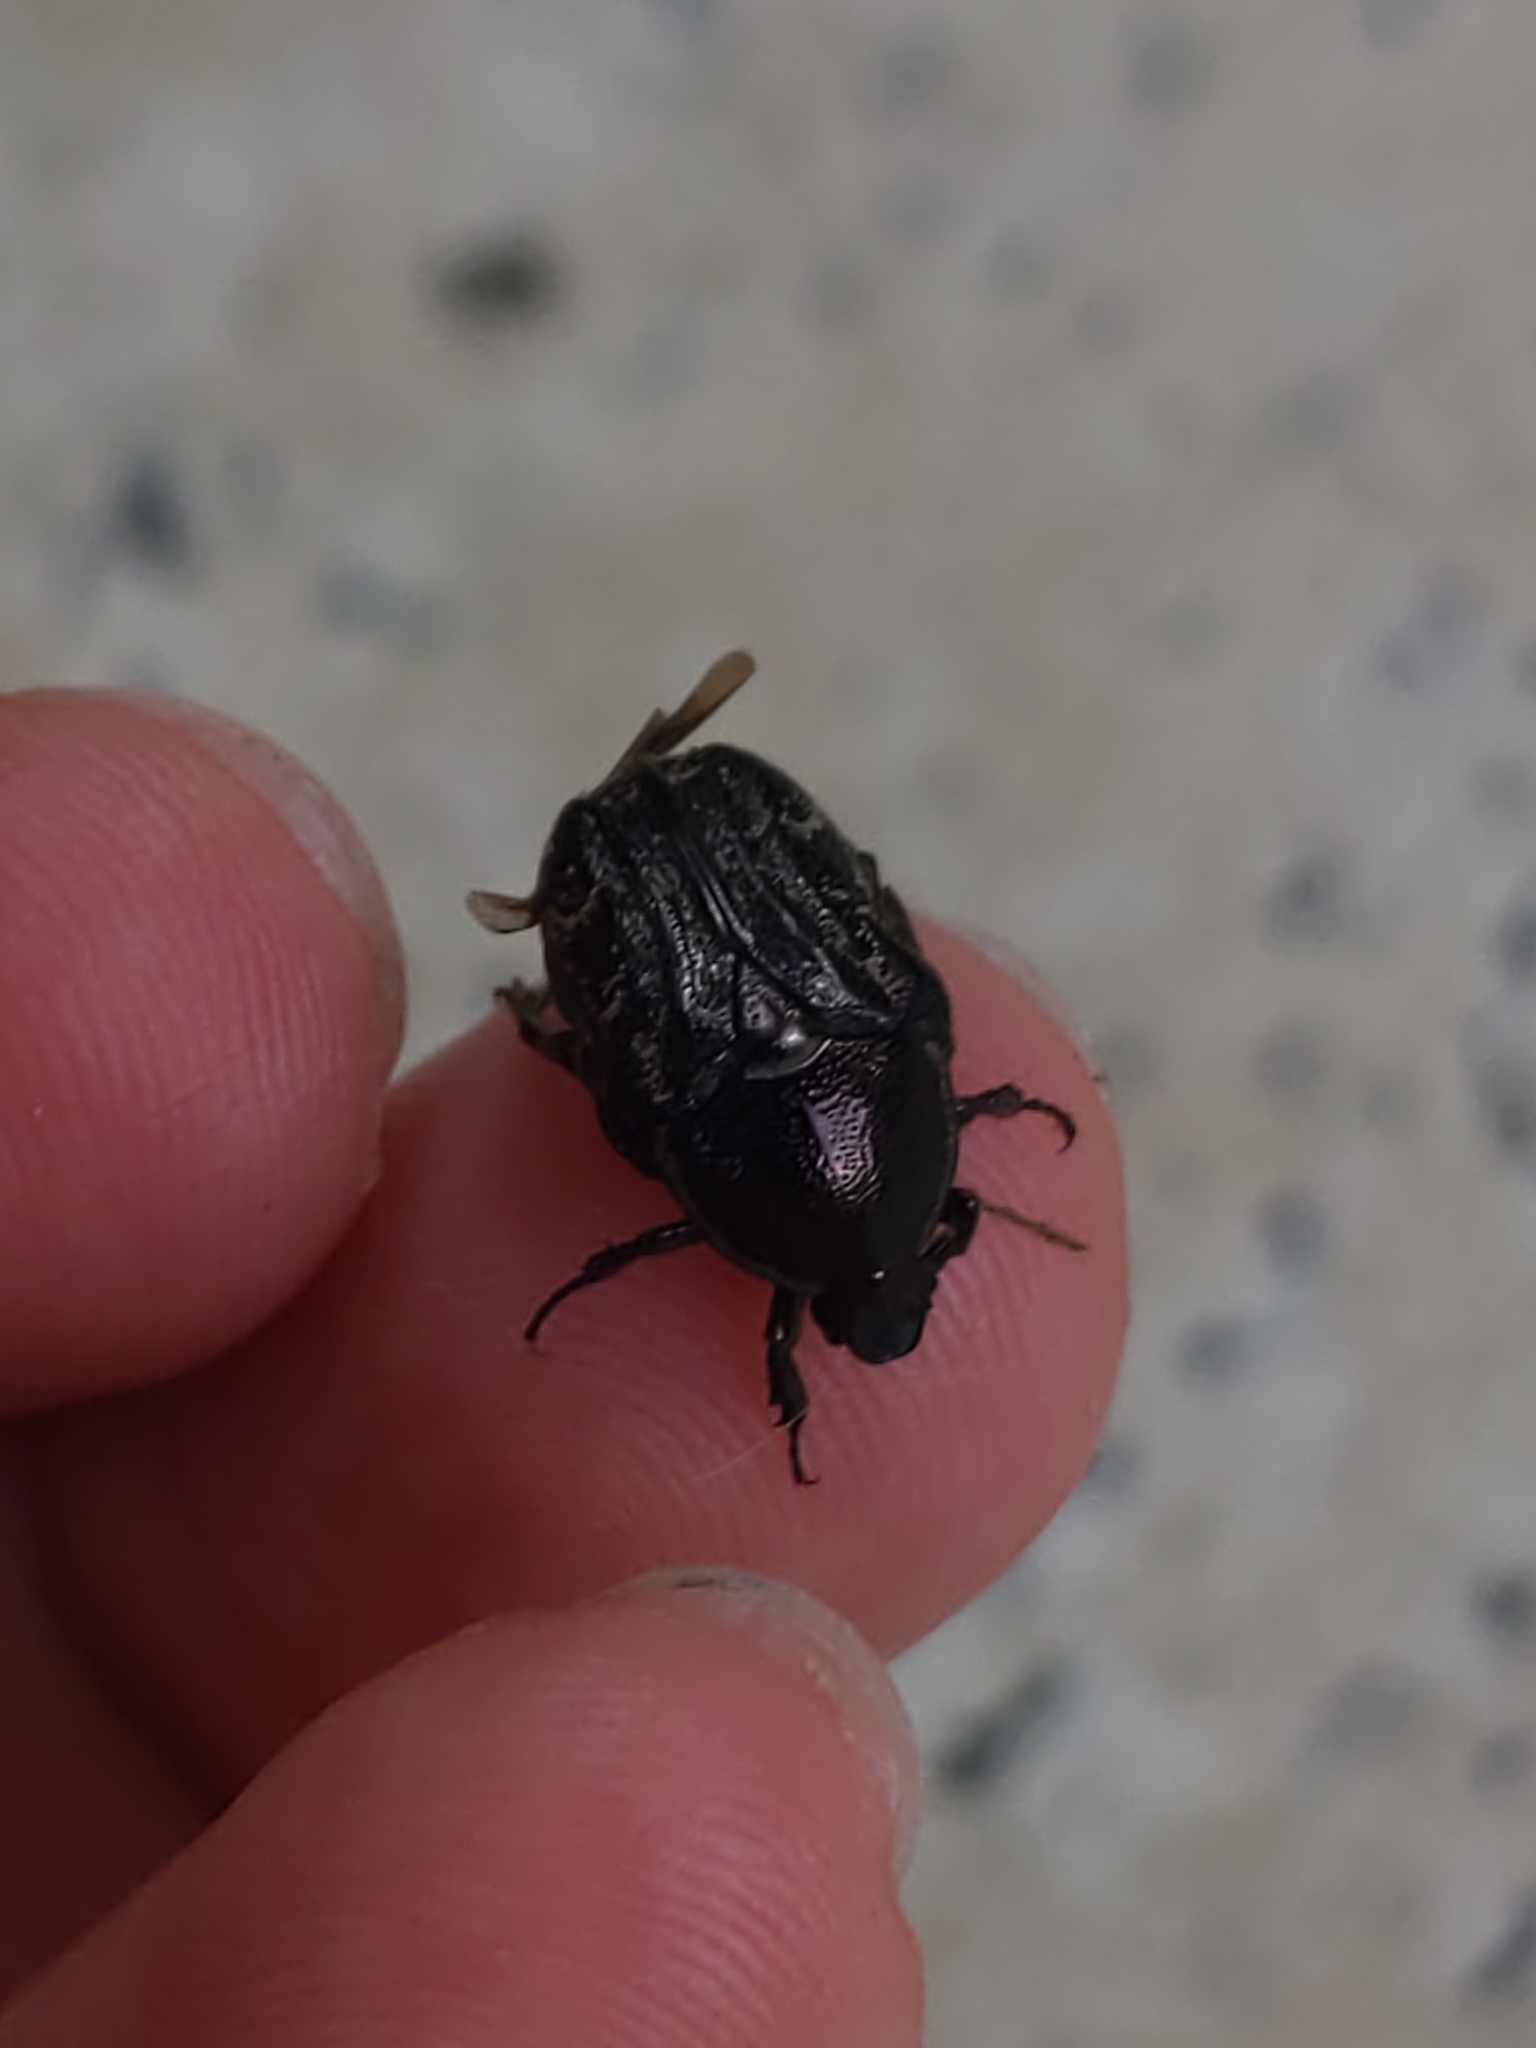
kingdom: Animalia
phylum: Arthropoda
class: Insecta
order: Coleoptera
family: Scarabaeidae
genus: Euphoria
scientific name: Euphoria sepulcralis
